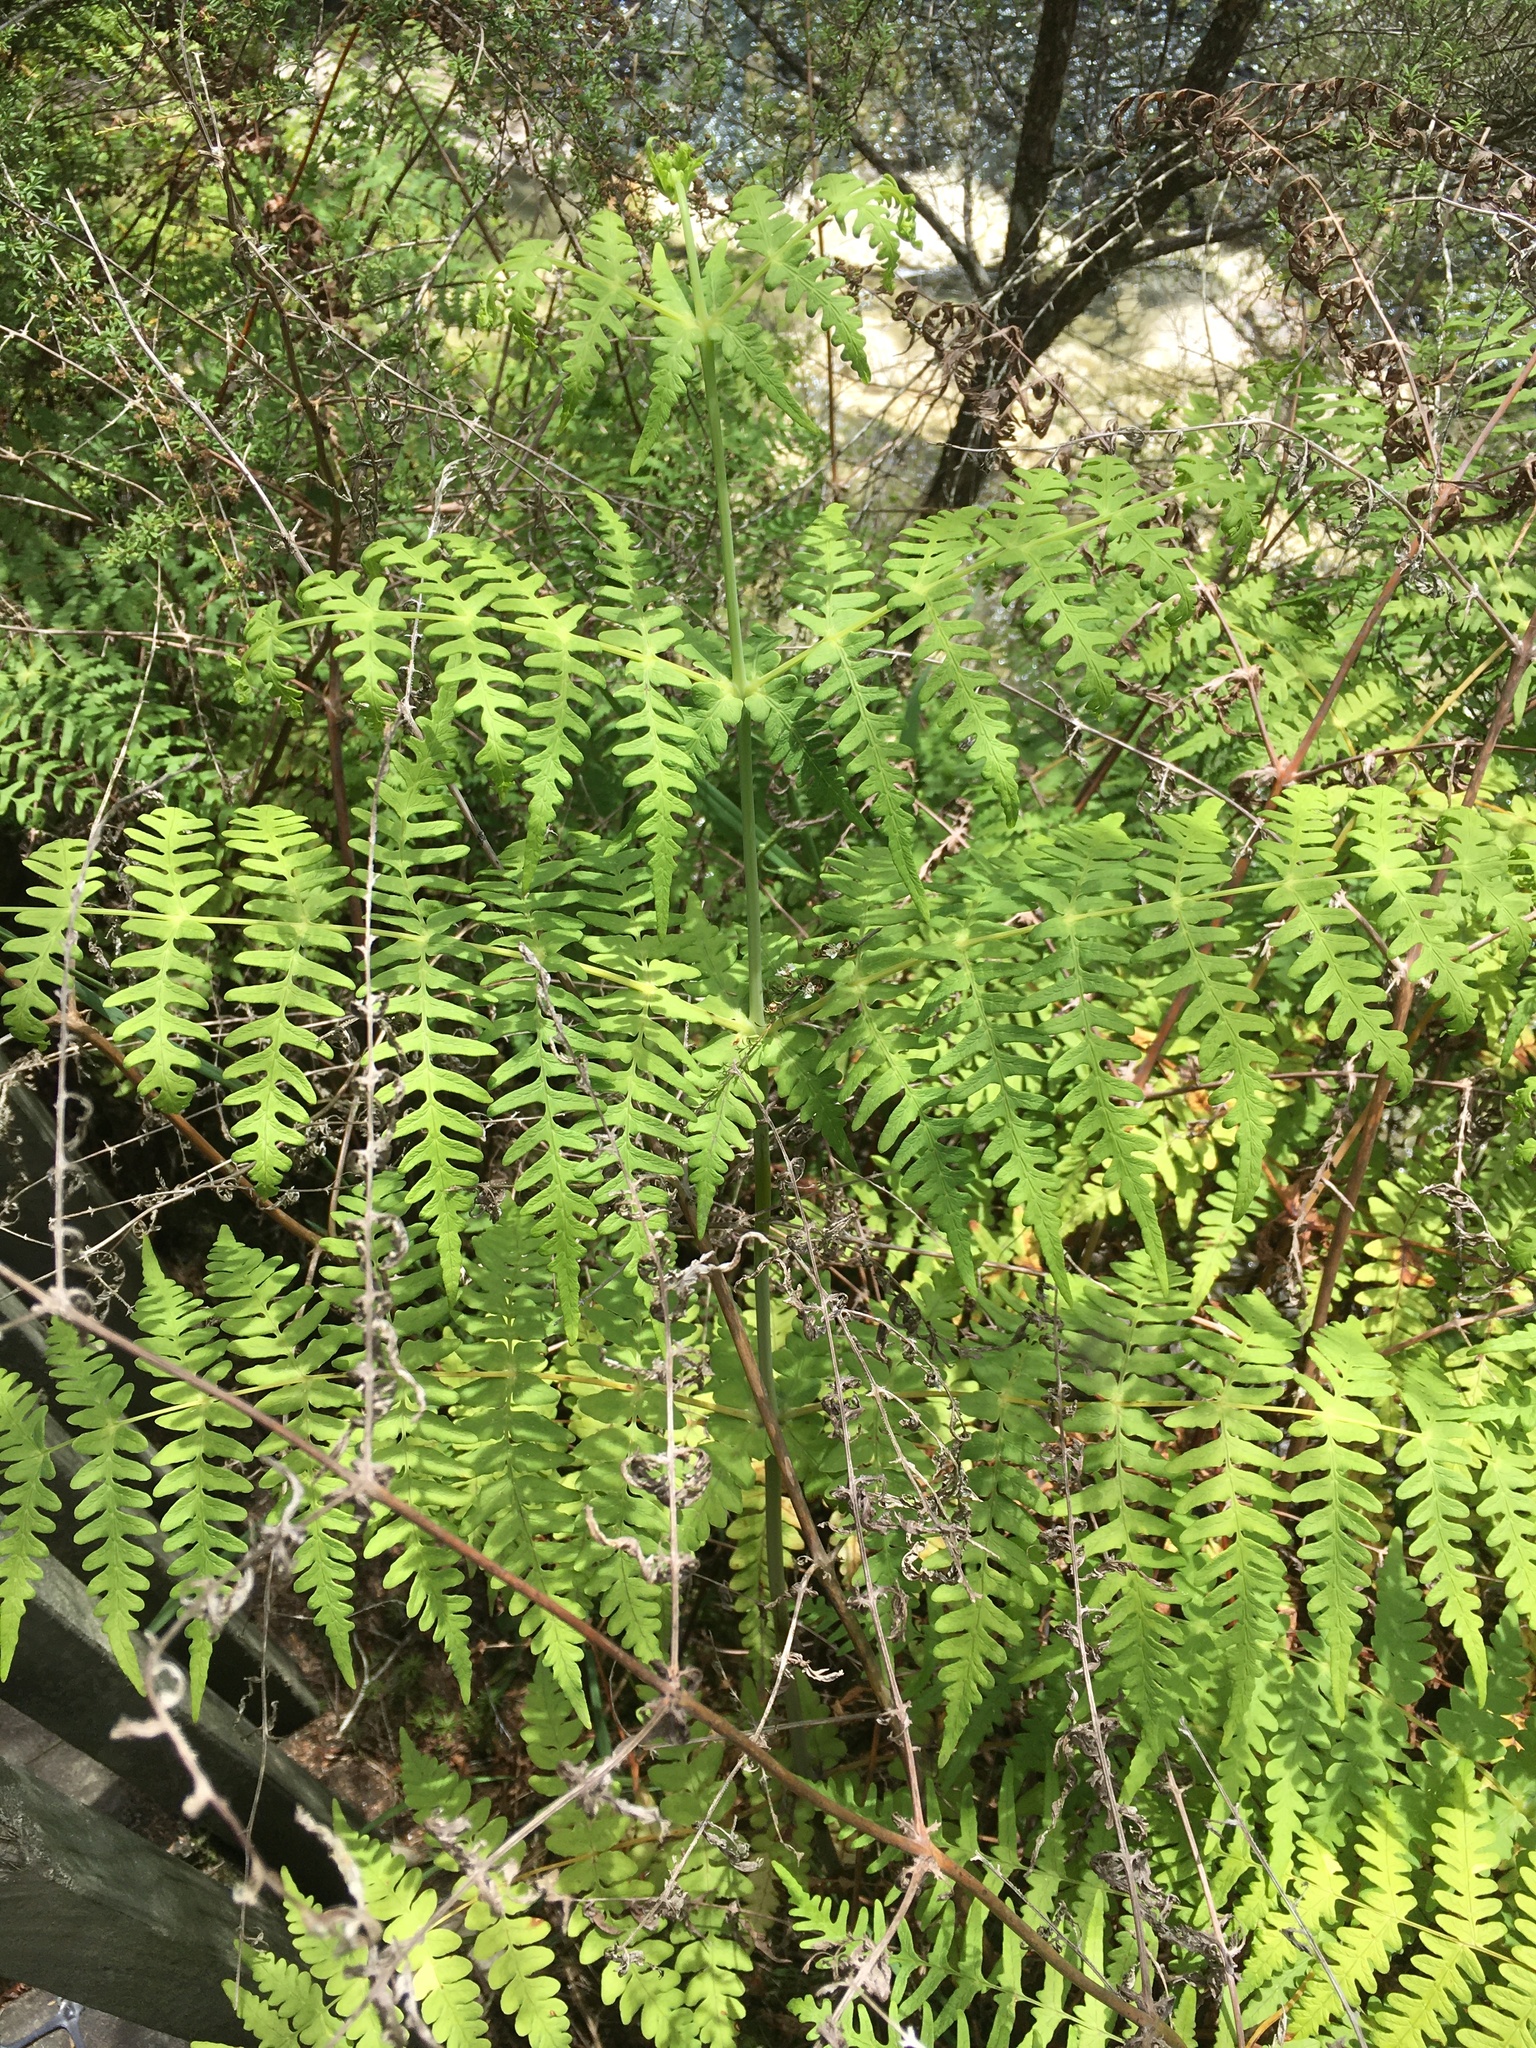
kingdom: Plantae
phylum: Tracheophyta
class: Polypodiopsida
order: Polypodiales
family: Dennstaedtiaceae
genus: Histiopteris
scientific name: Histiopteris incisa
